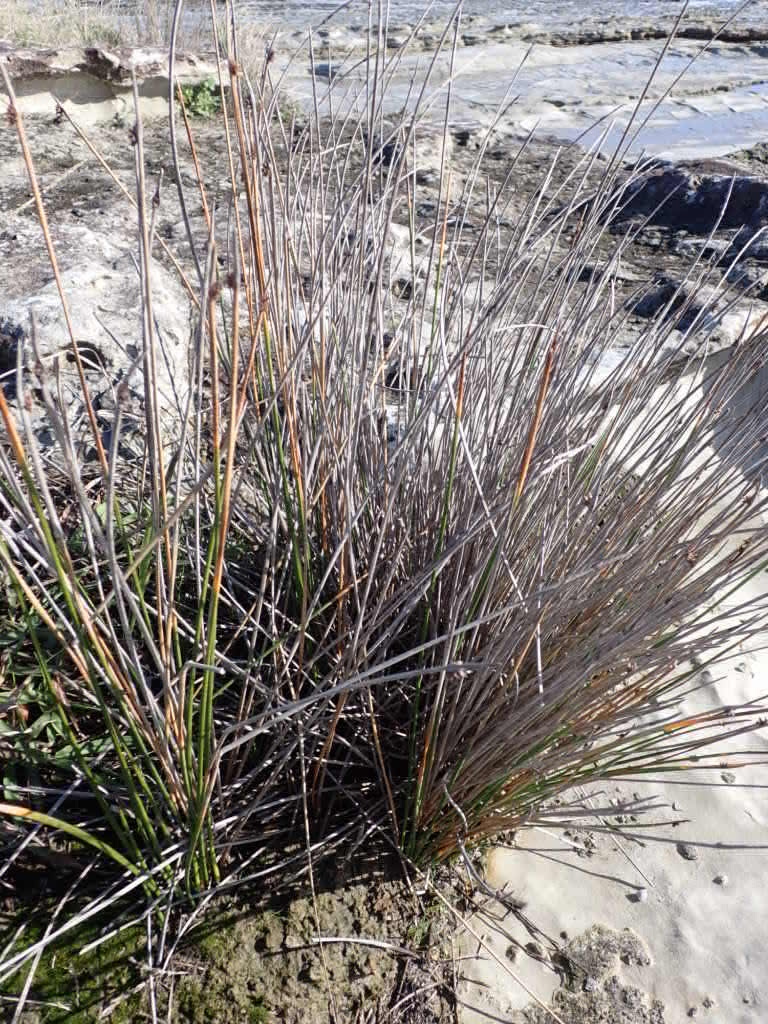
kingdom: Plantae
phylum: Tracheophyta
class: Liliopsida
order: Poales
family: Cyperaceae
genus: Ficinia
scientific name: Ficinia nodosa
